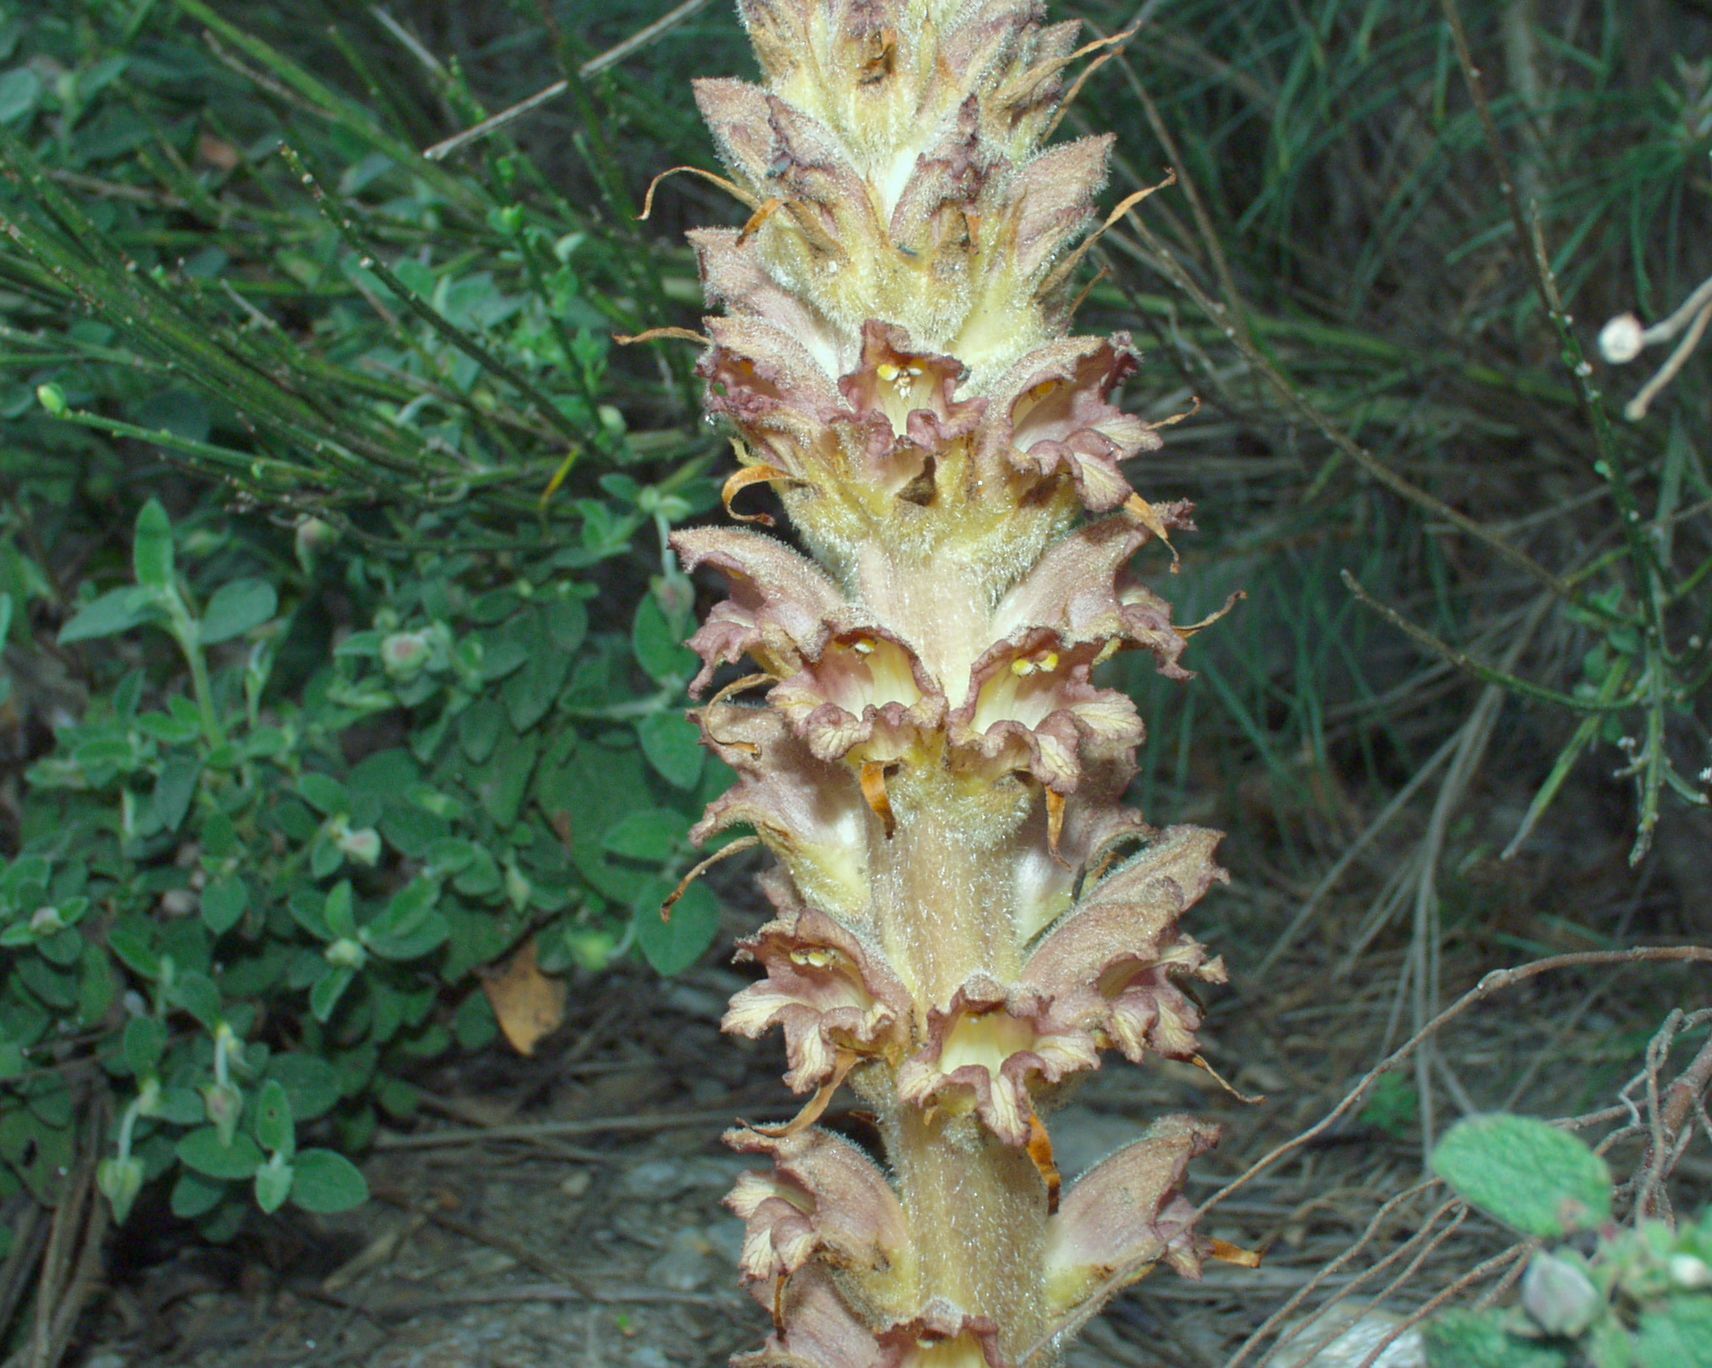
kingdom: Plantae
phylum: Tracheophyta
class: Magnoliopsida
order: Lamiales
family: Orobanchaceae
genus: Orobanche
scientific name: Orobanche rapum-genistae
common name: Greater broomrape
